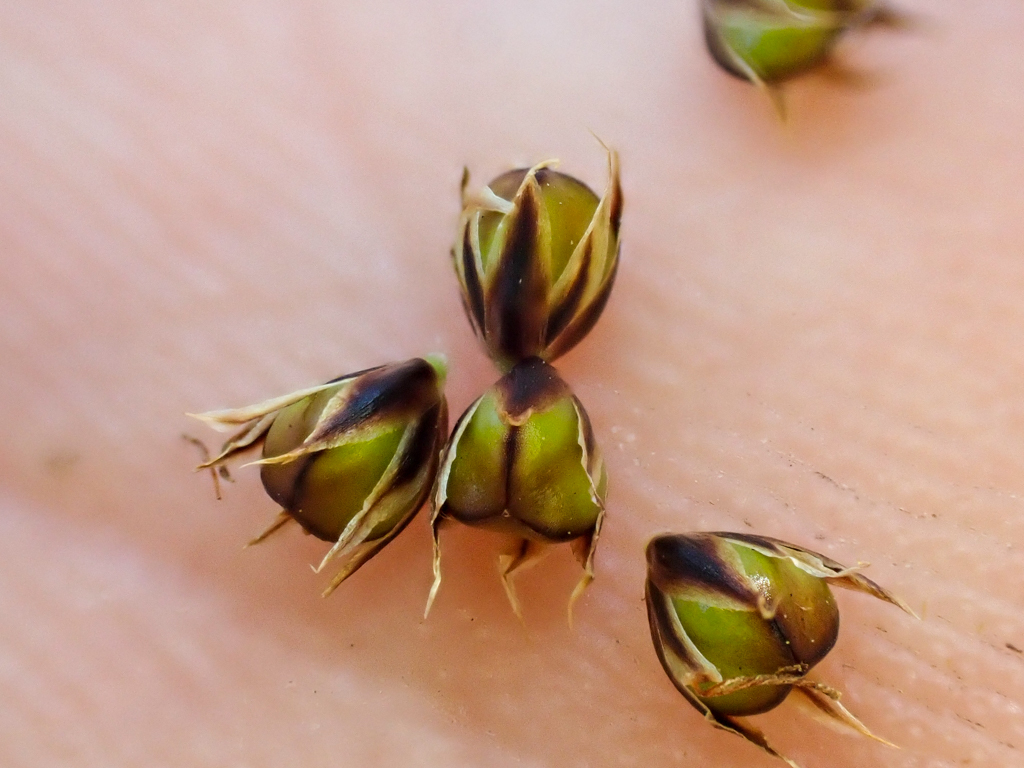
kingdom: Plantae
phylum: Tracheophyta
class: Liliopsida
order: Poales
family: Juncaceae
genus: Luzula
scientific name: Luzula macrantha
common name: Large-anthered woodrush
